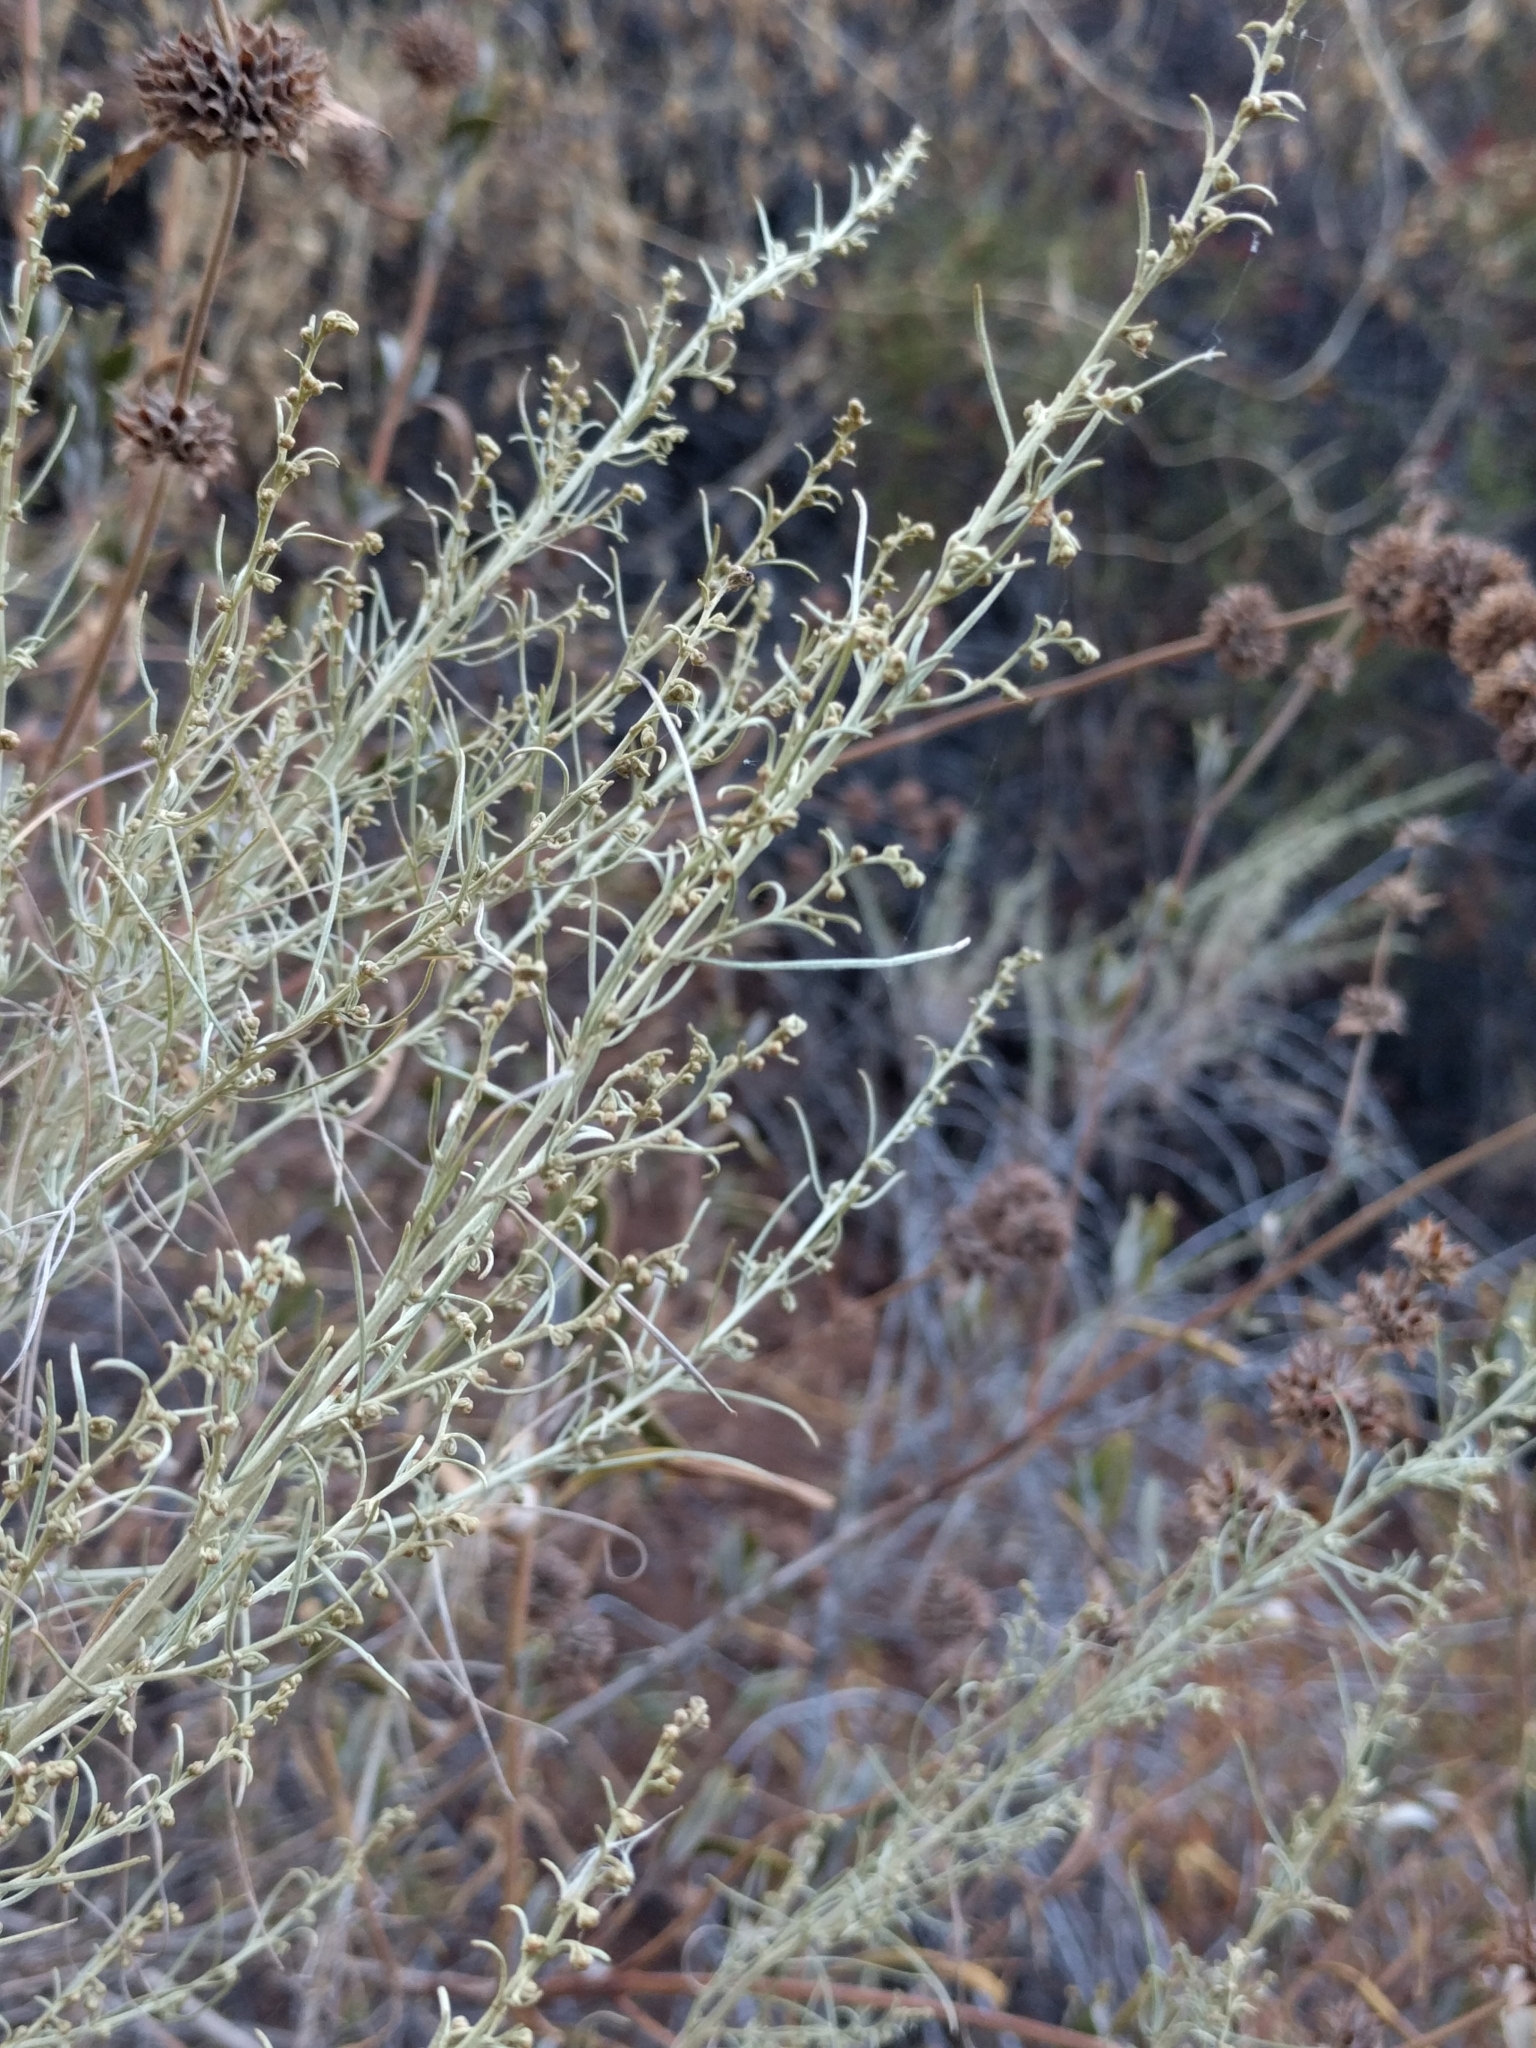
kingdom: Plantae
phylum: Tracheophyta
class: Magnoliopsida
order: Asterales
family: Asteraceae
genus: Artemisia
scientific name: Artemisia californica
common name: California sagebrush
